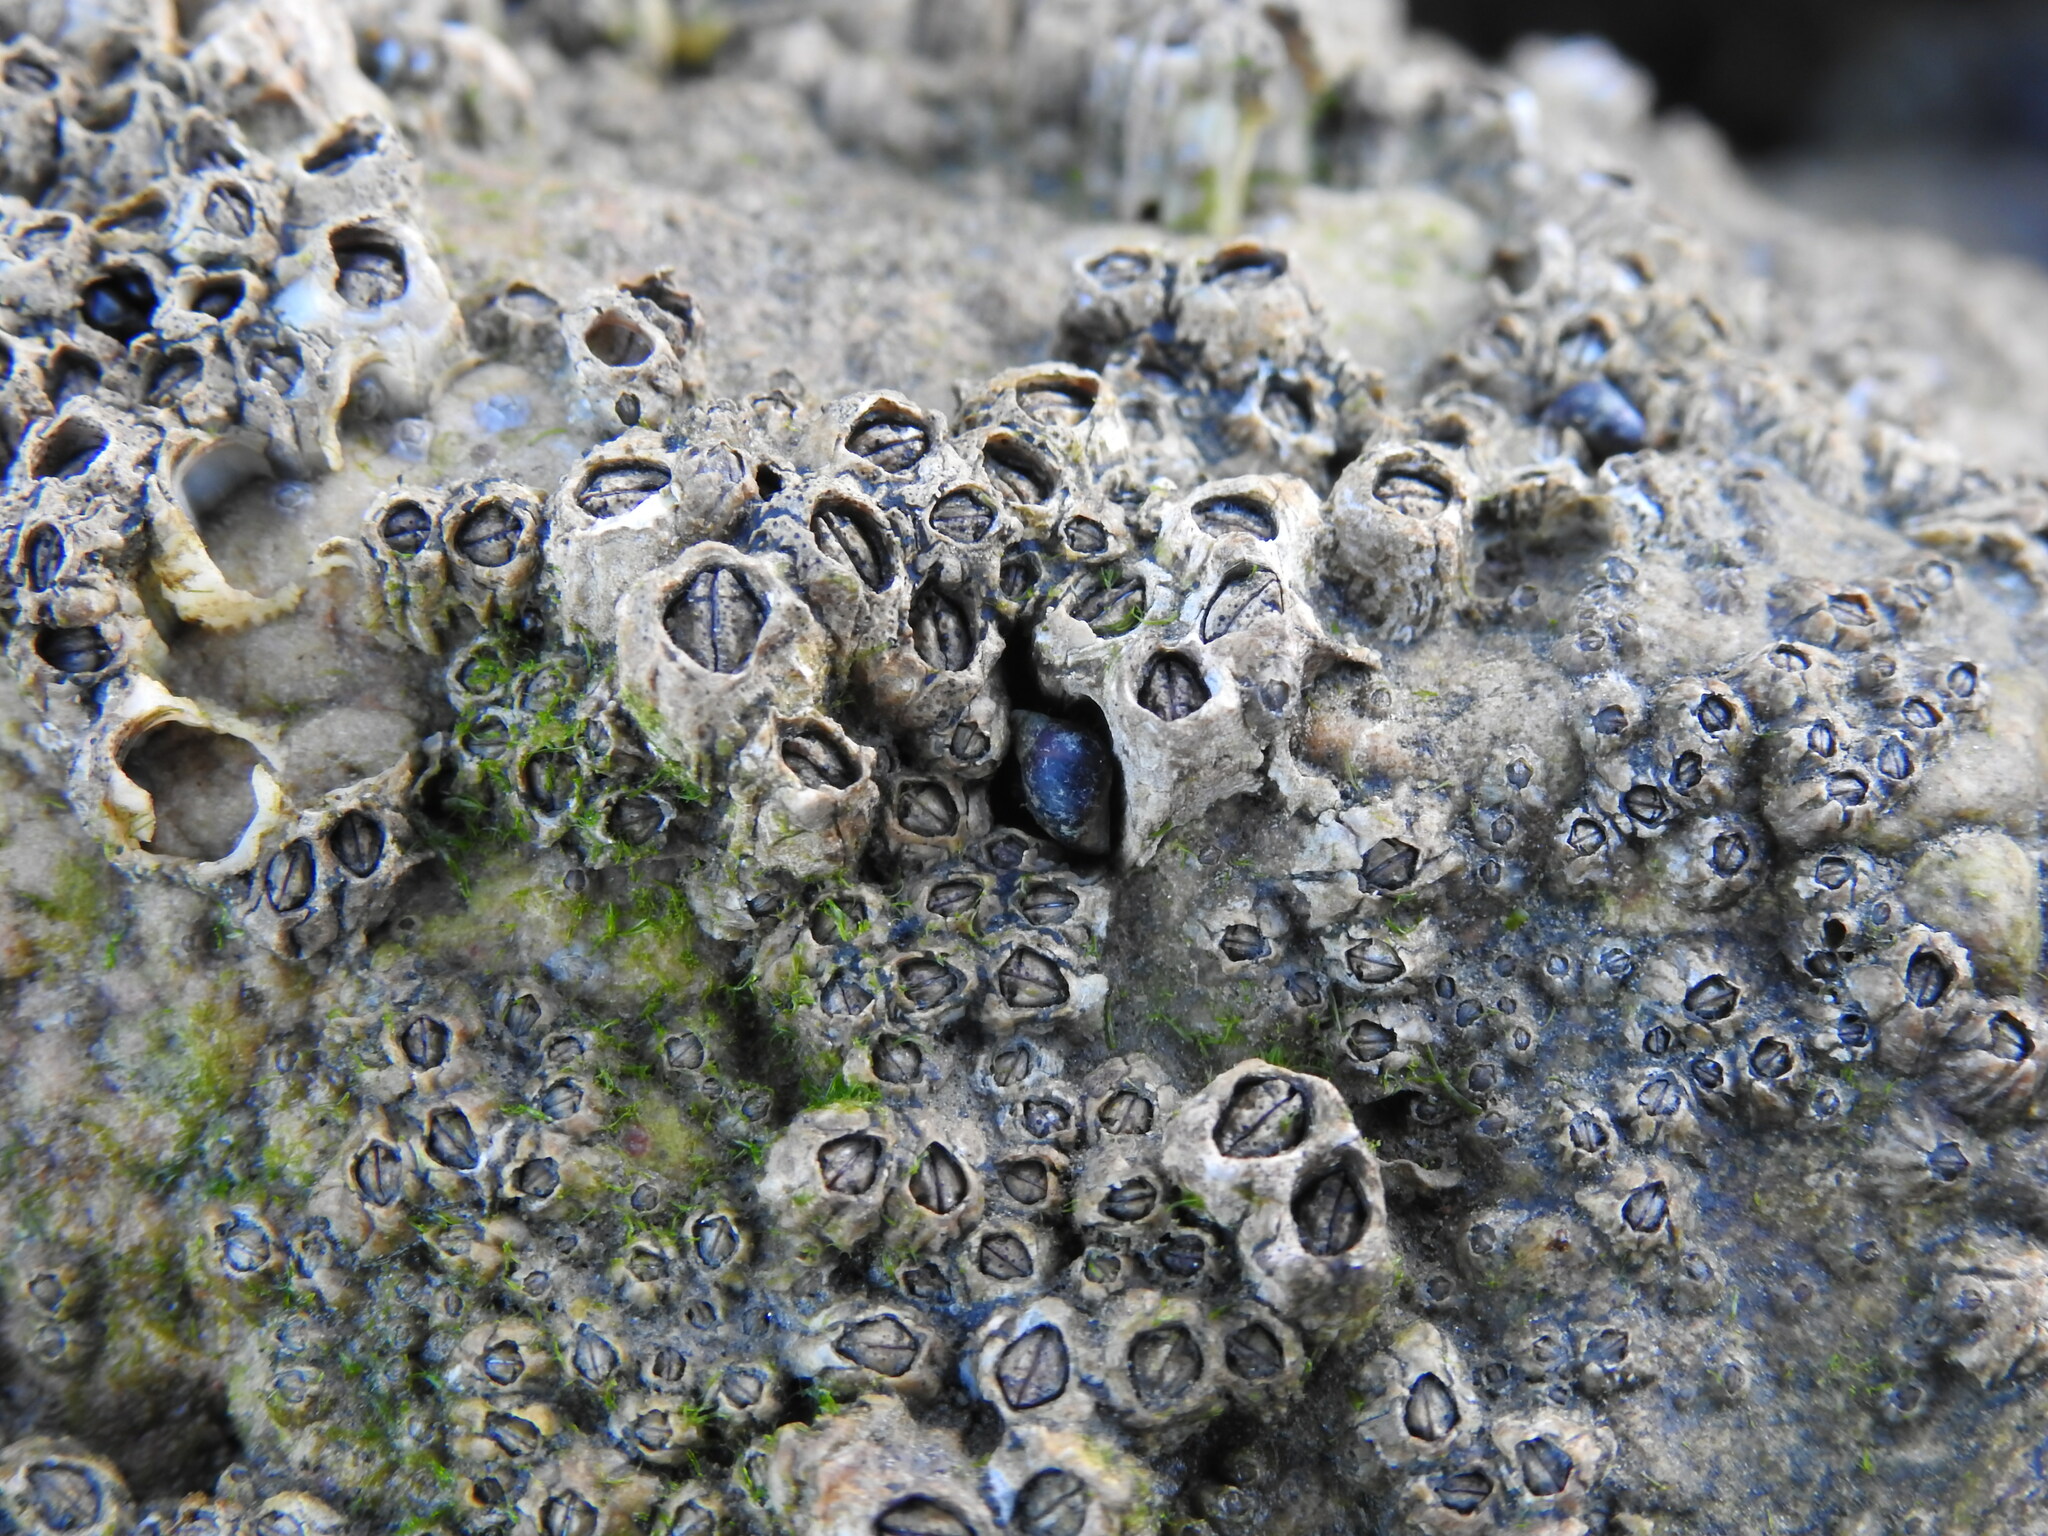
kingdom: Animalia
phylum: Mollusca
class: Gastropoda
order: Littorinimorpha
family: Littorinidae
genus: Melarhaphe
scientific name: Melarhaphe neritoides
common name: Small periwinkle
